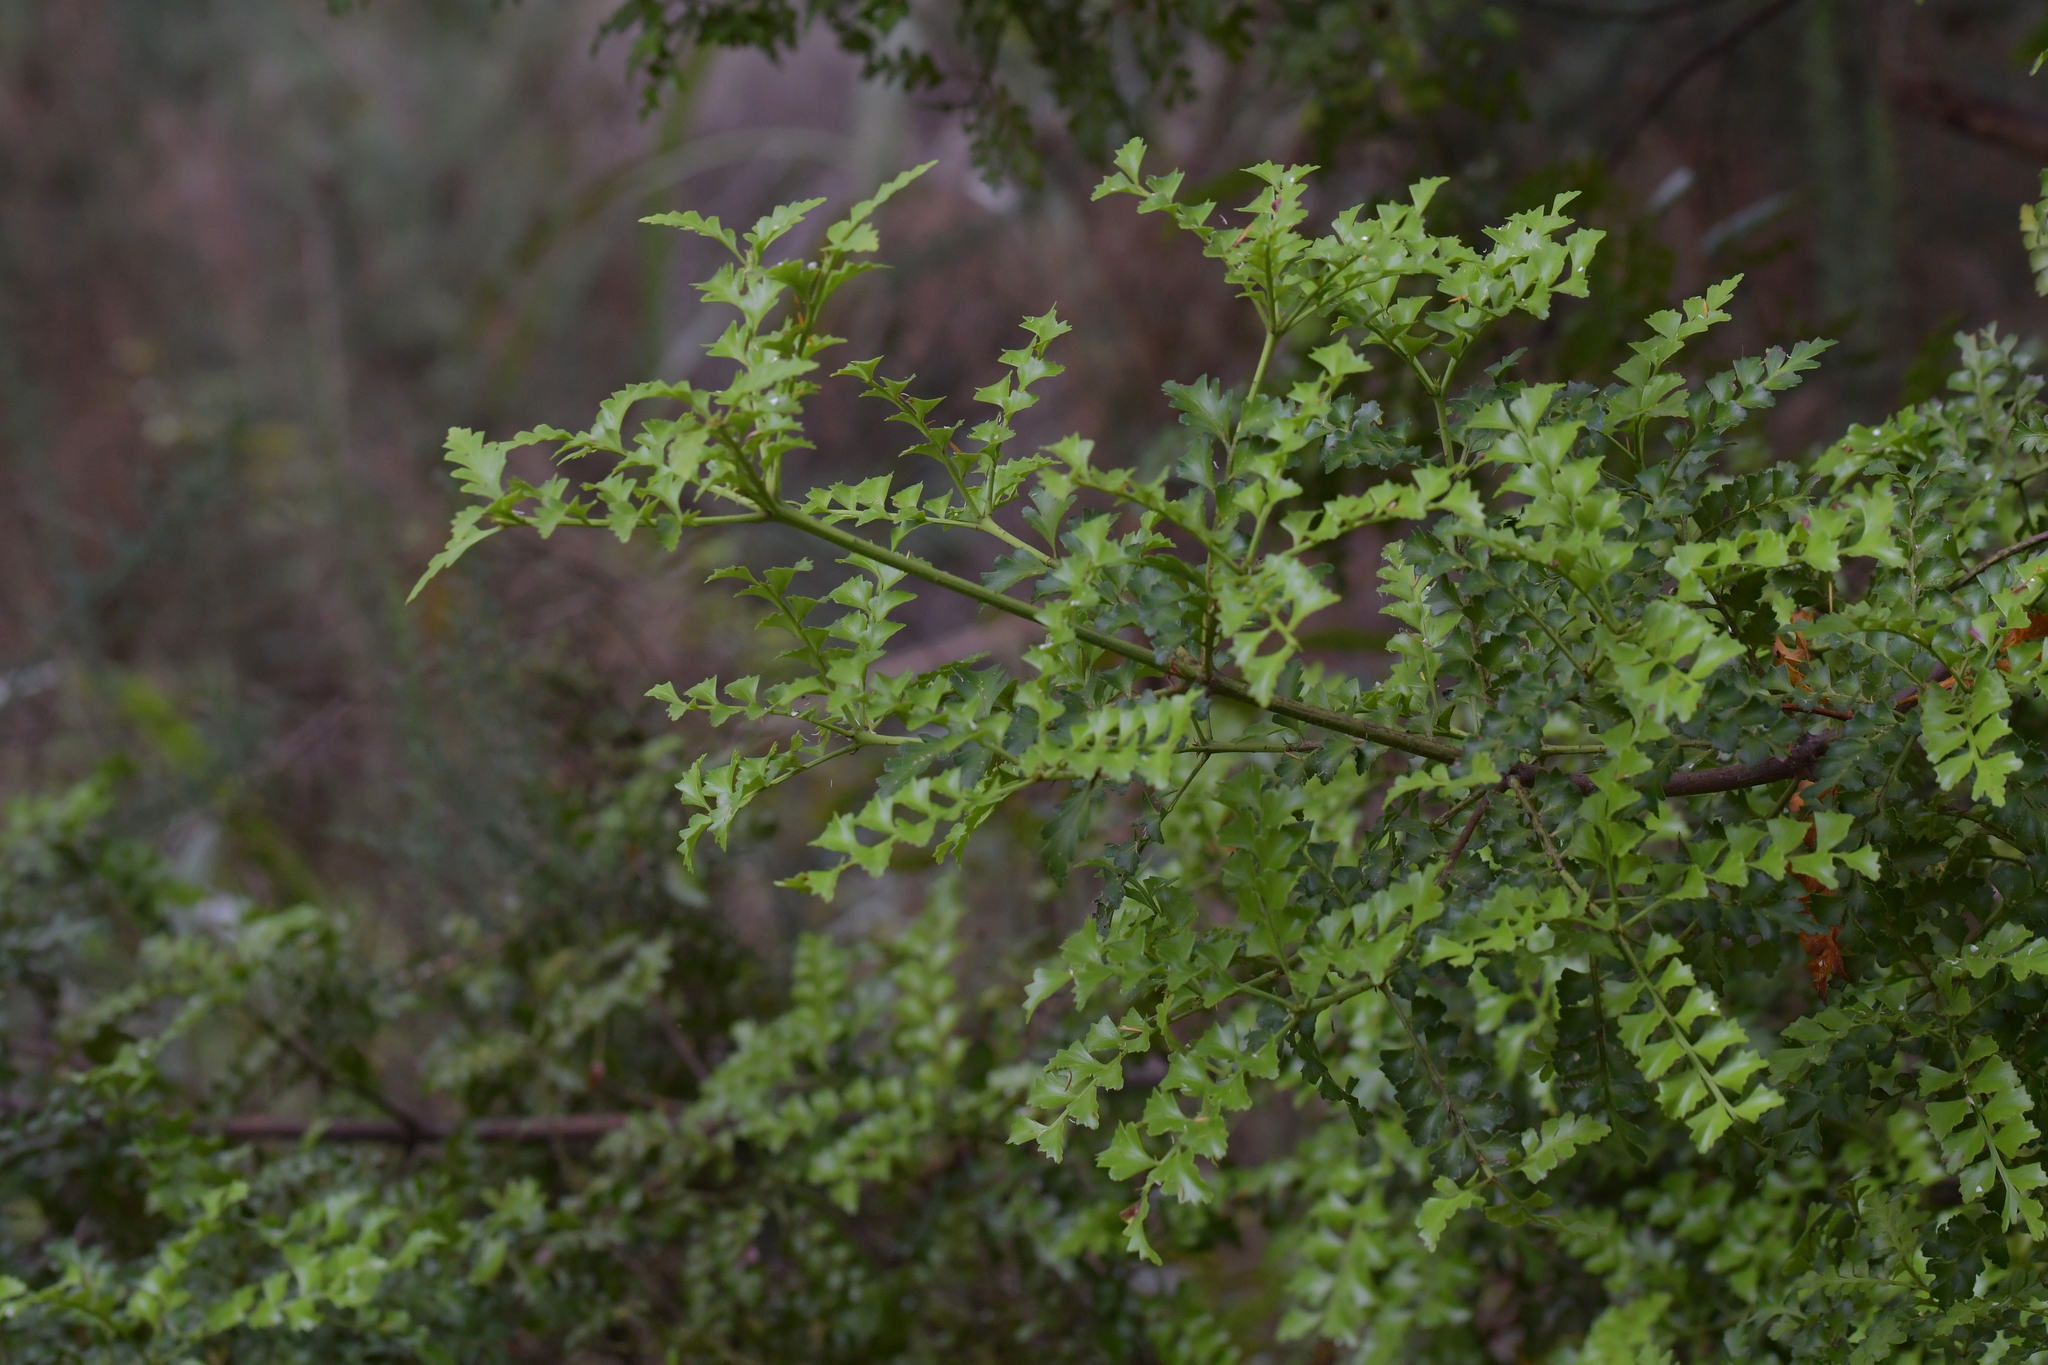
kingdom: Plantae
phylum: Tracheophyta
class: Pinopsida
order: Pinales
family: Phyllocladaceae
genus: Phyllocladus
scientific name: Phyllocladus trichomanoides
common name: Celery pine
